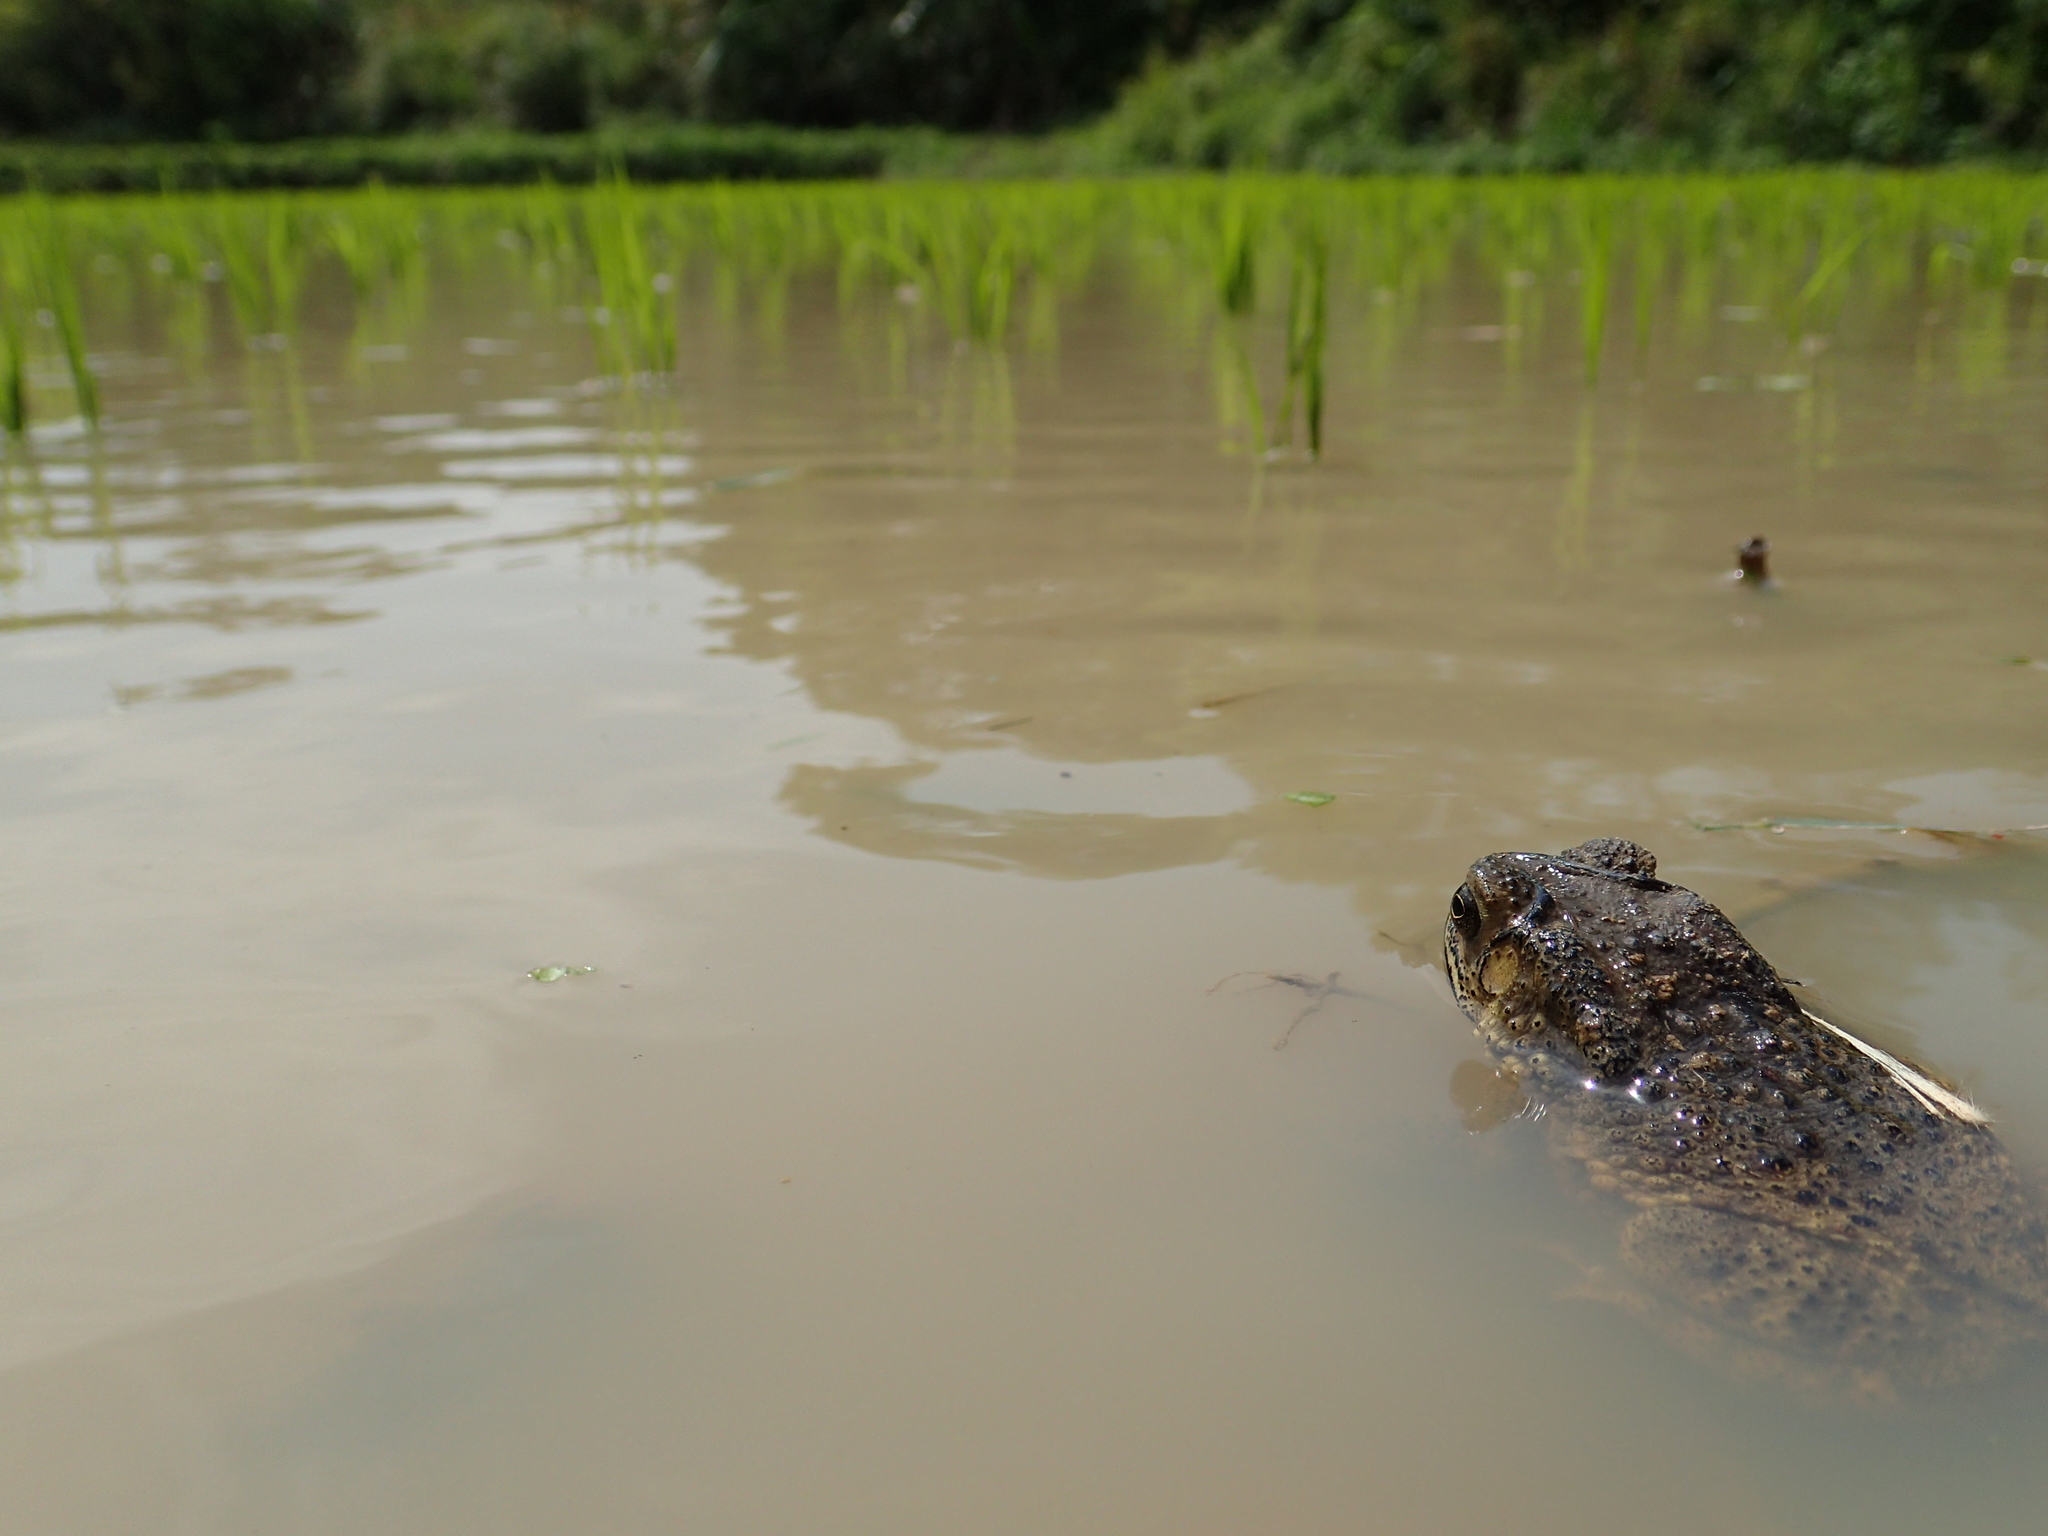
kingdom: Animalia
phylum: Chordata
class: Amphibia
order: Anura
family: Bufonidae
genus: Duttaphrynus
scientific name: Duttaphrynus melanostictus
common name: Common sunda toad
